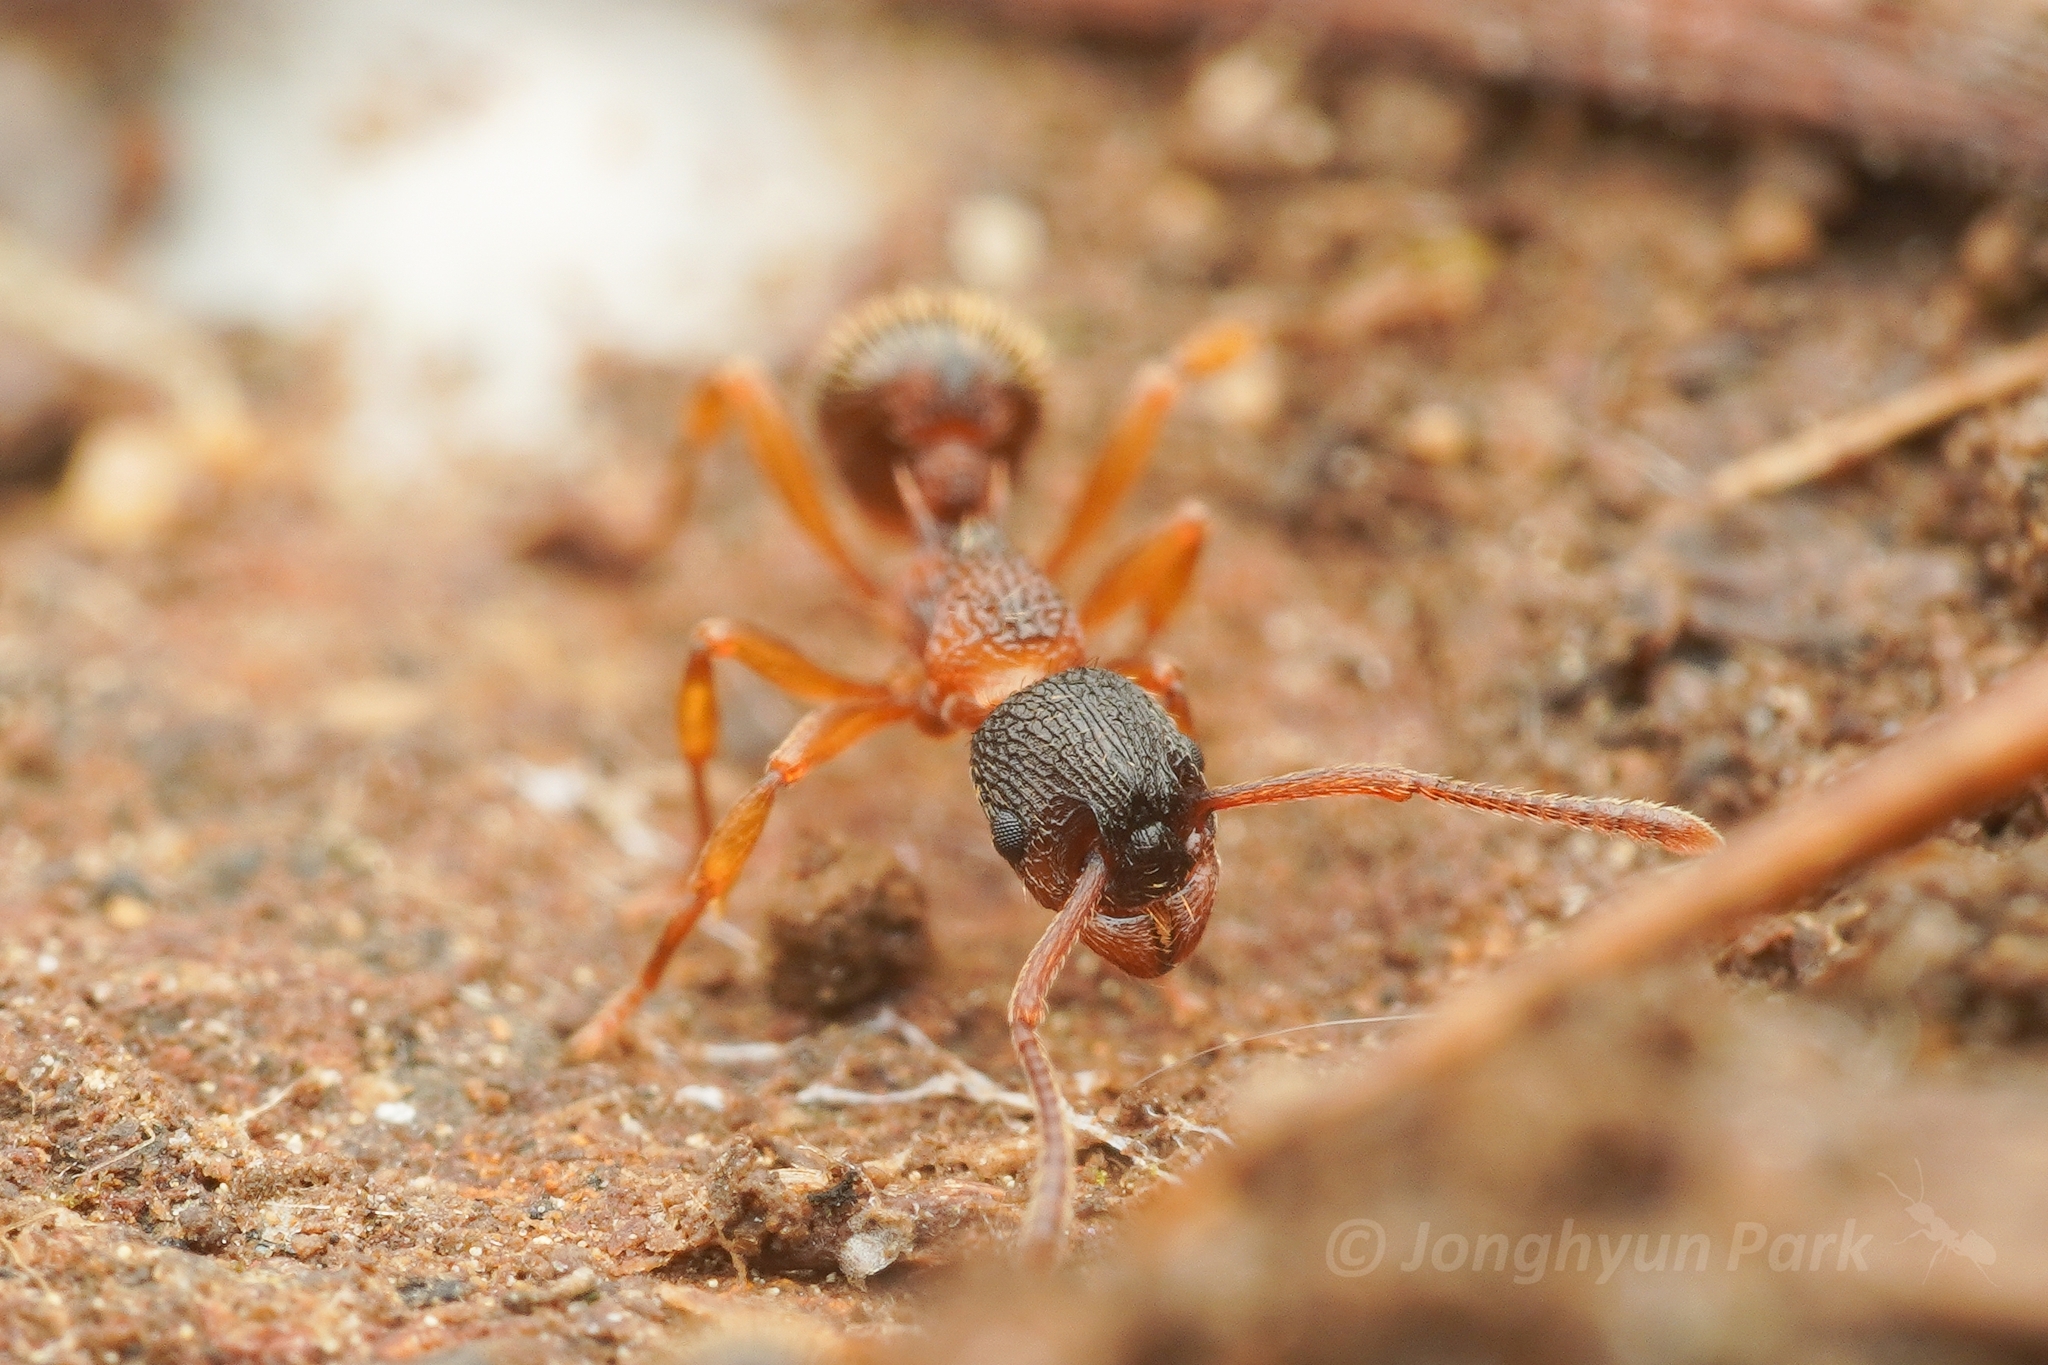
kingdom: Animalia
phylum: Arthropoda
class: Insecta
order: Hymenoptera
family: Formicidae
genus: Myrmica
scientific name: Myrmica ademonia
